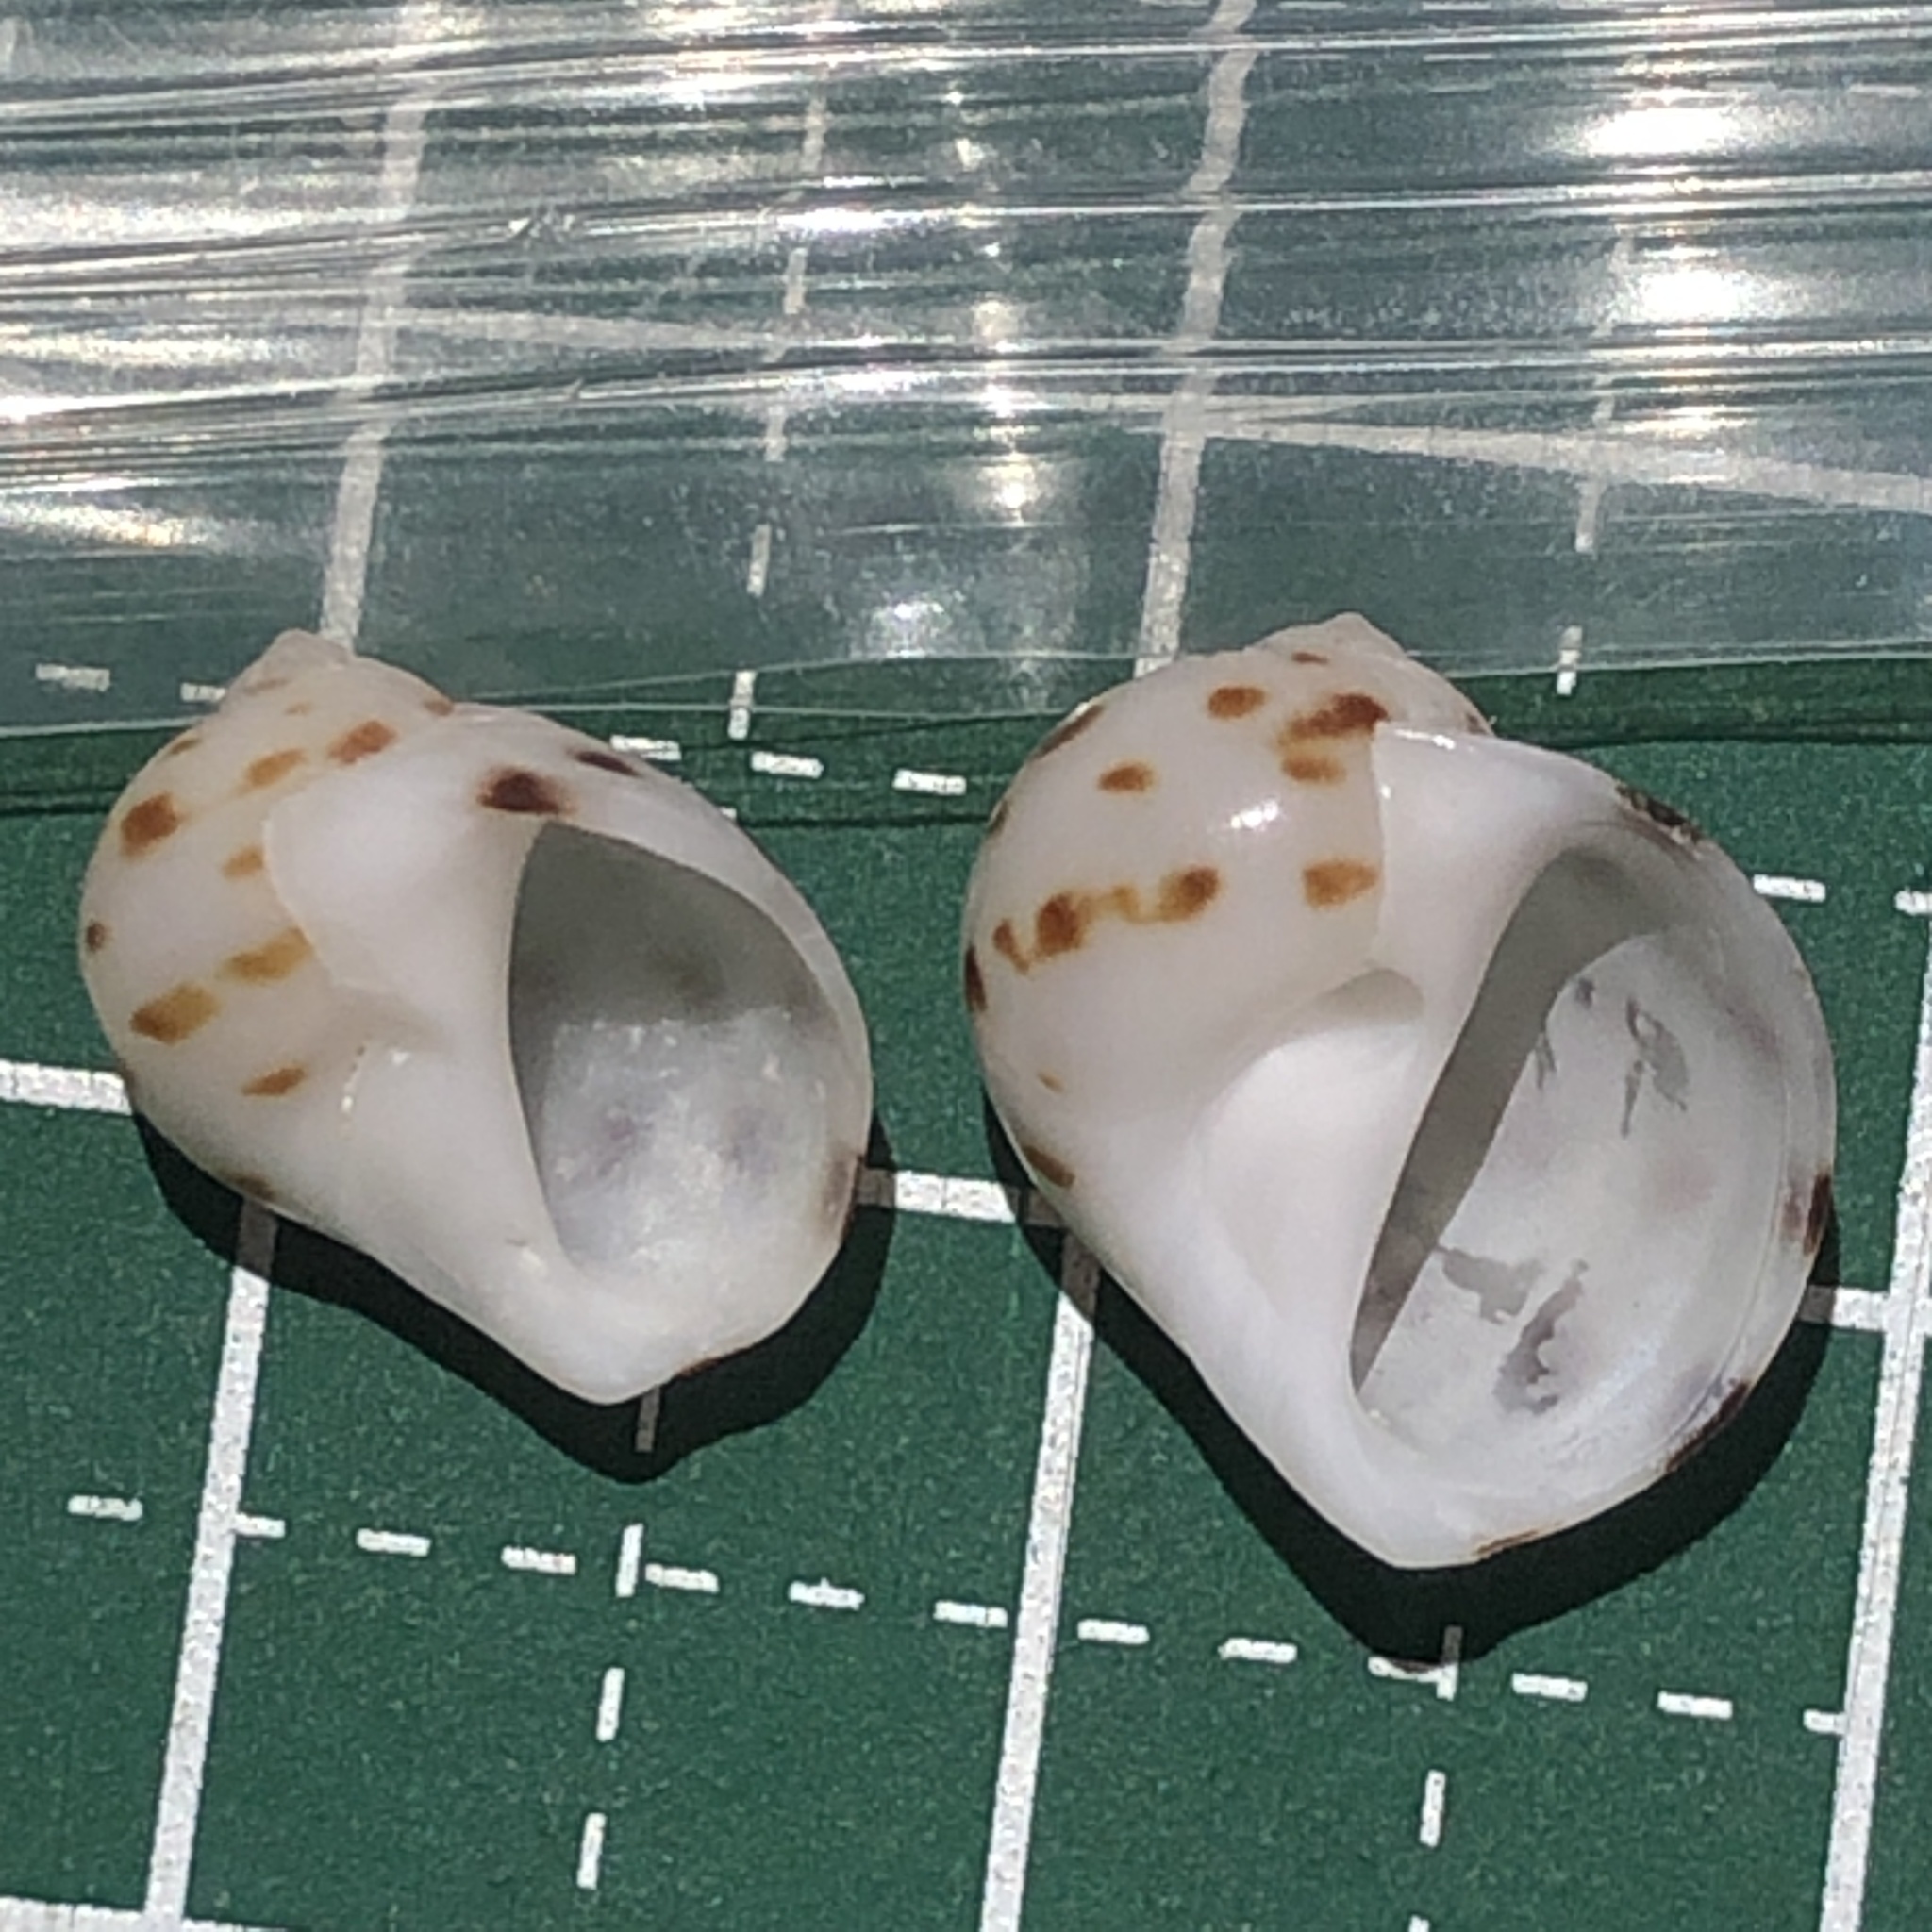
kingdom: Animalia
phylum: Mollusca
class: Gastropoda
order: Littorinimorpha
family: Naticidae
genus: Naticarius
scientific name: Naticarius onca
